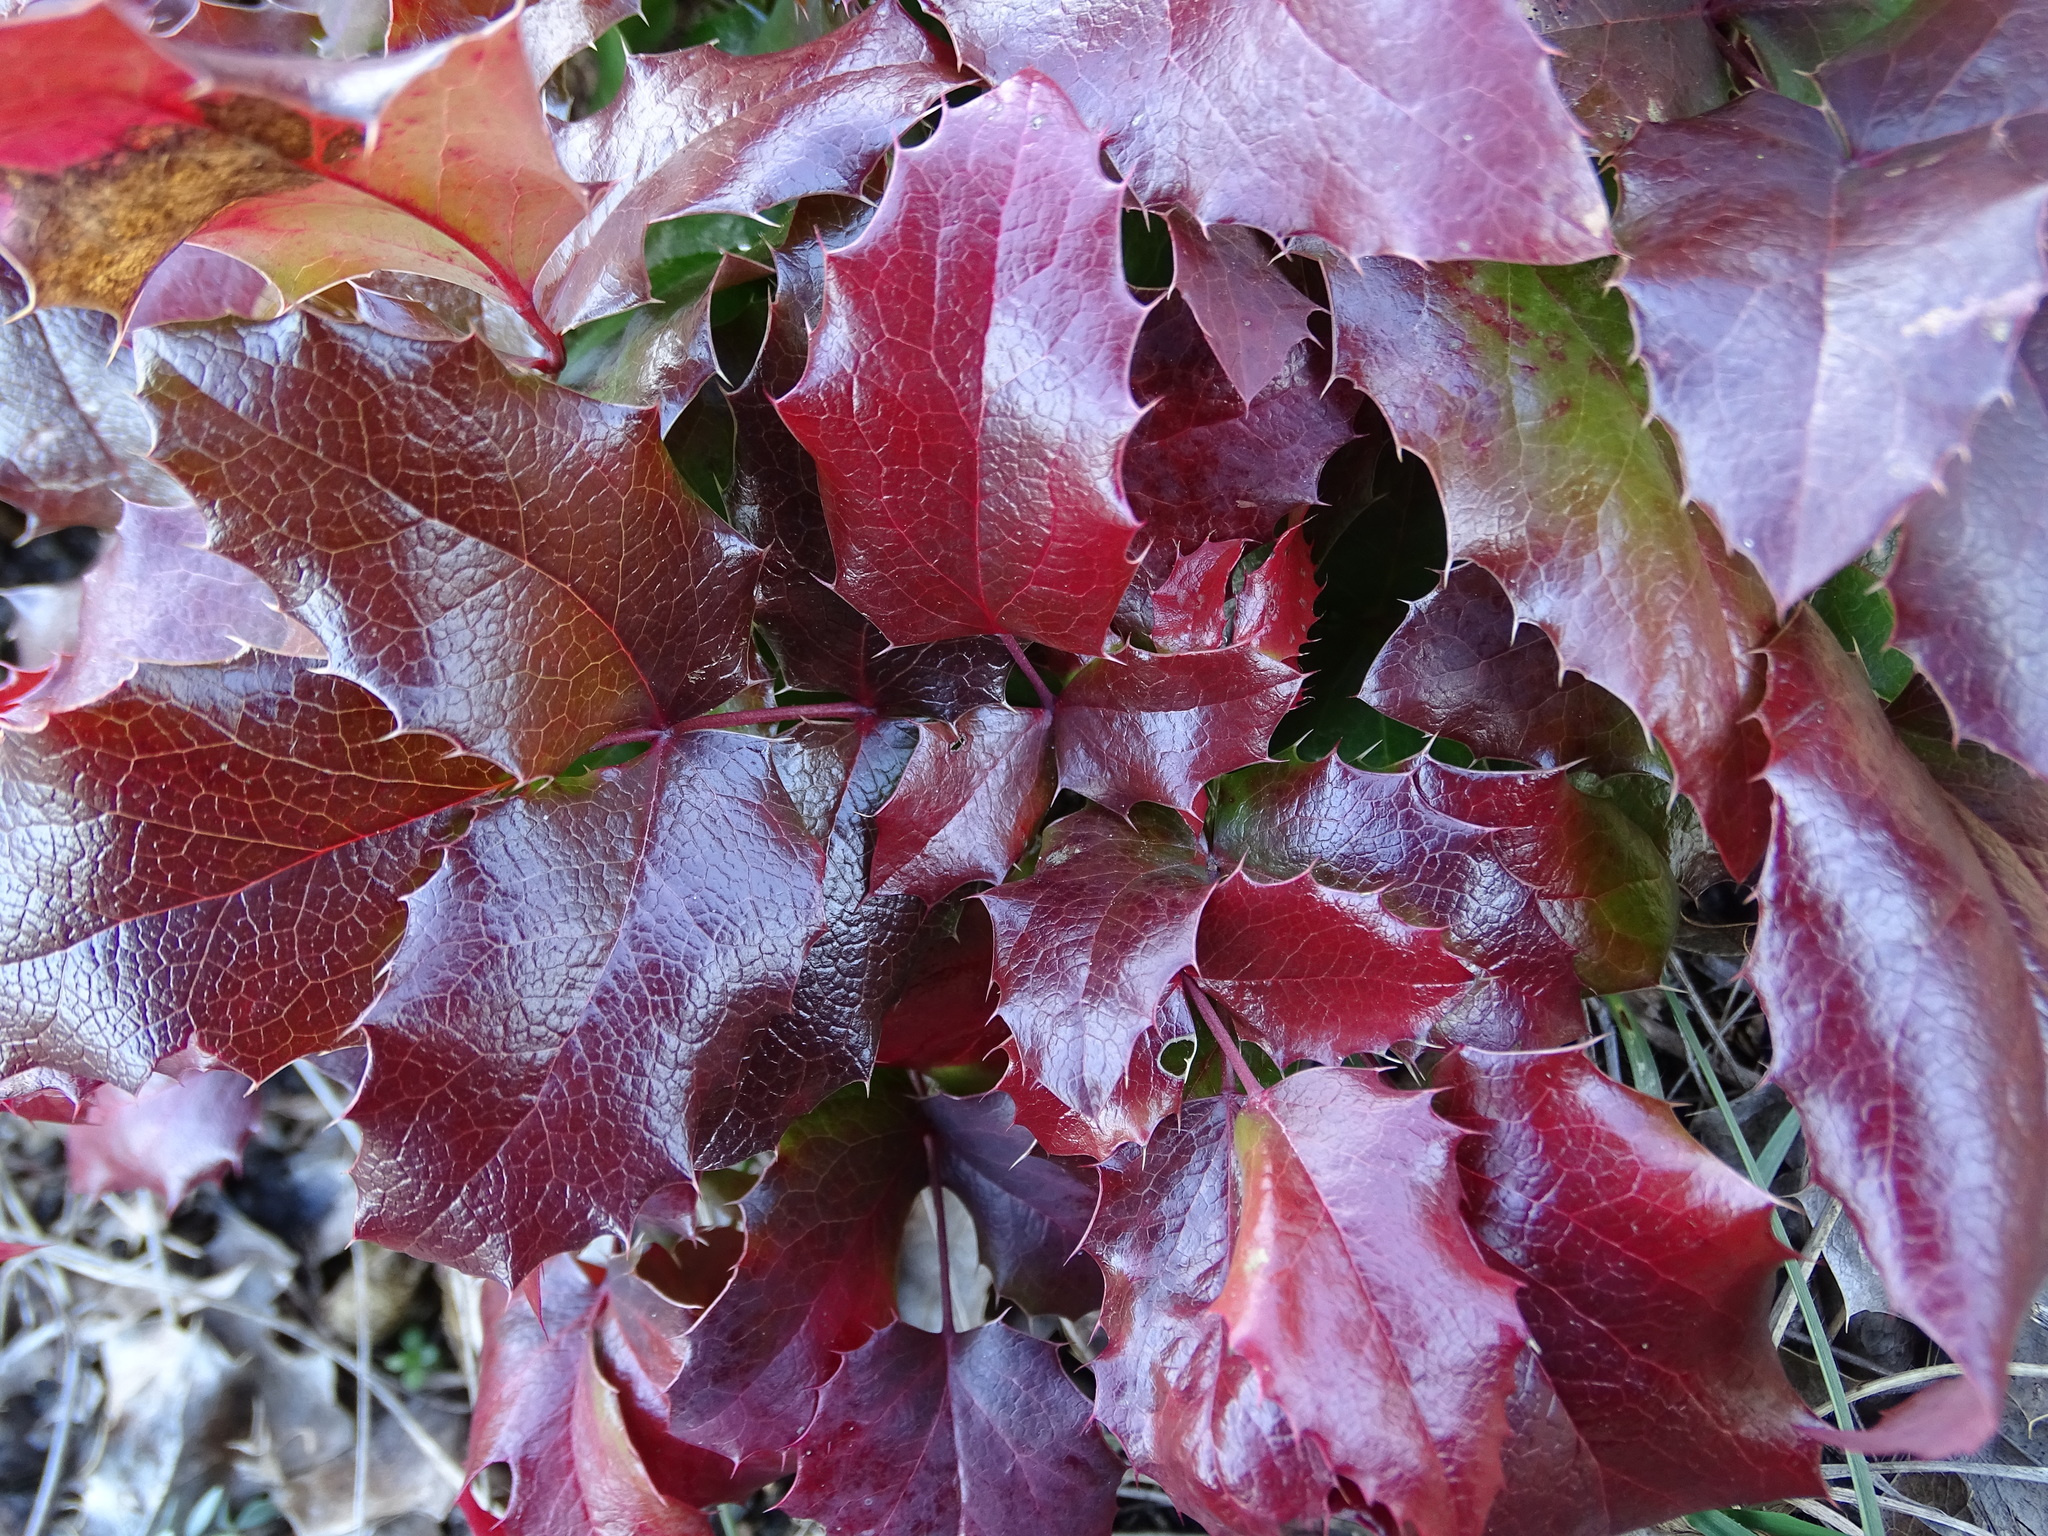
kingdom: Plantae
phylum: Tracheophyta
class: Magnoliopsida
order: Ranunculales
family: Berberidaceae
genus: Mahonia
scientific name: Mahonia aquifolium
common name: Oregon-grape
